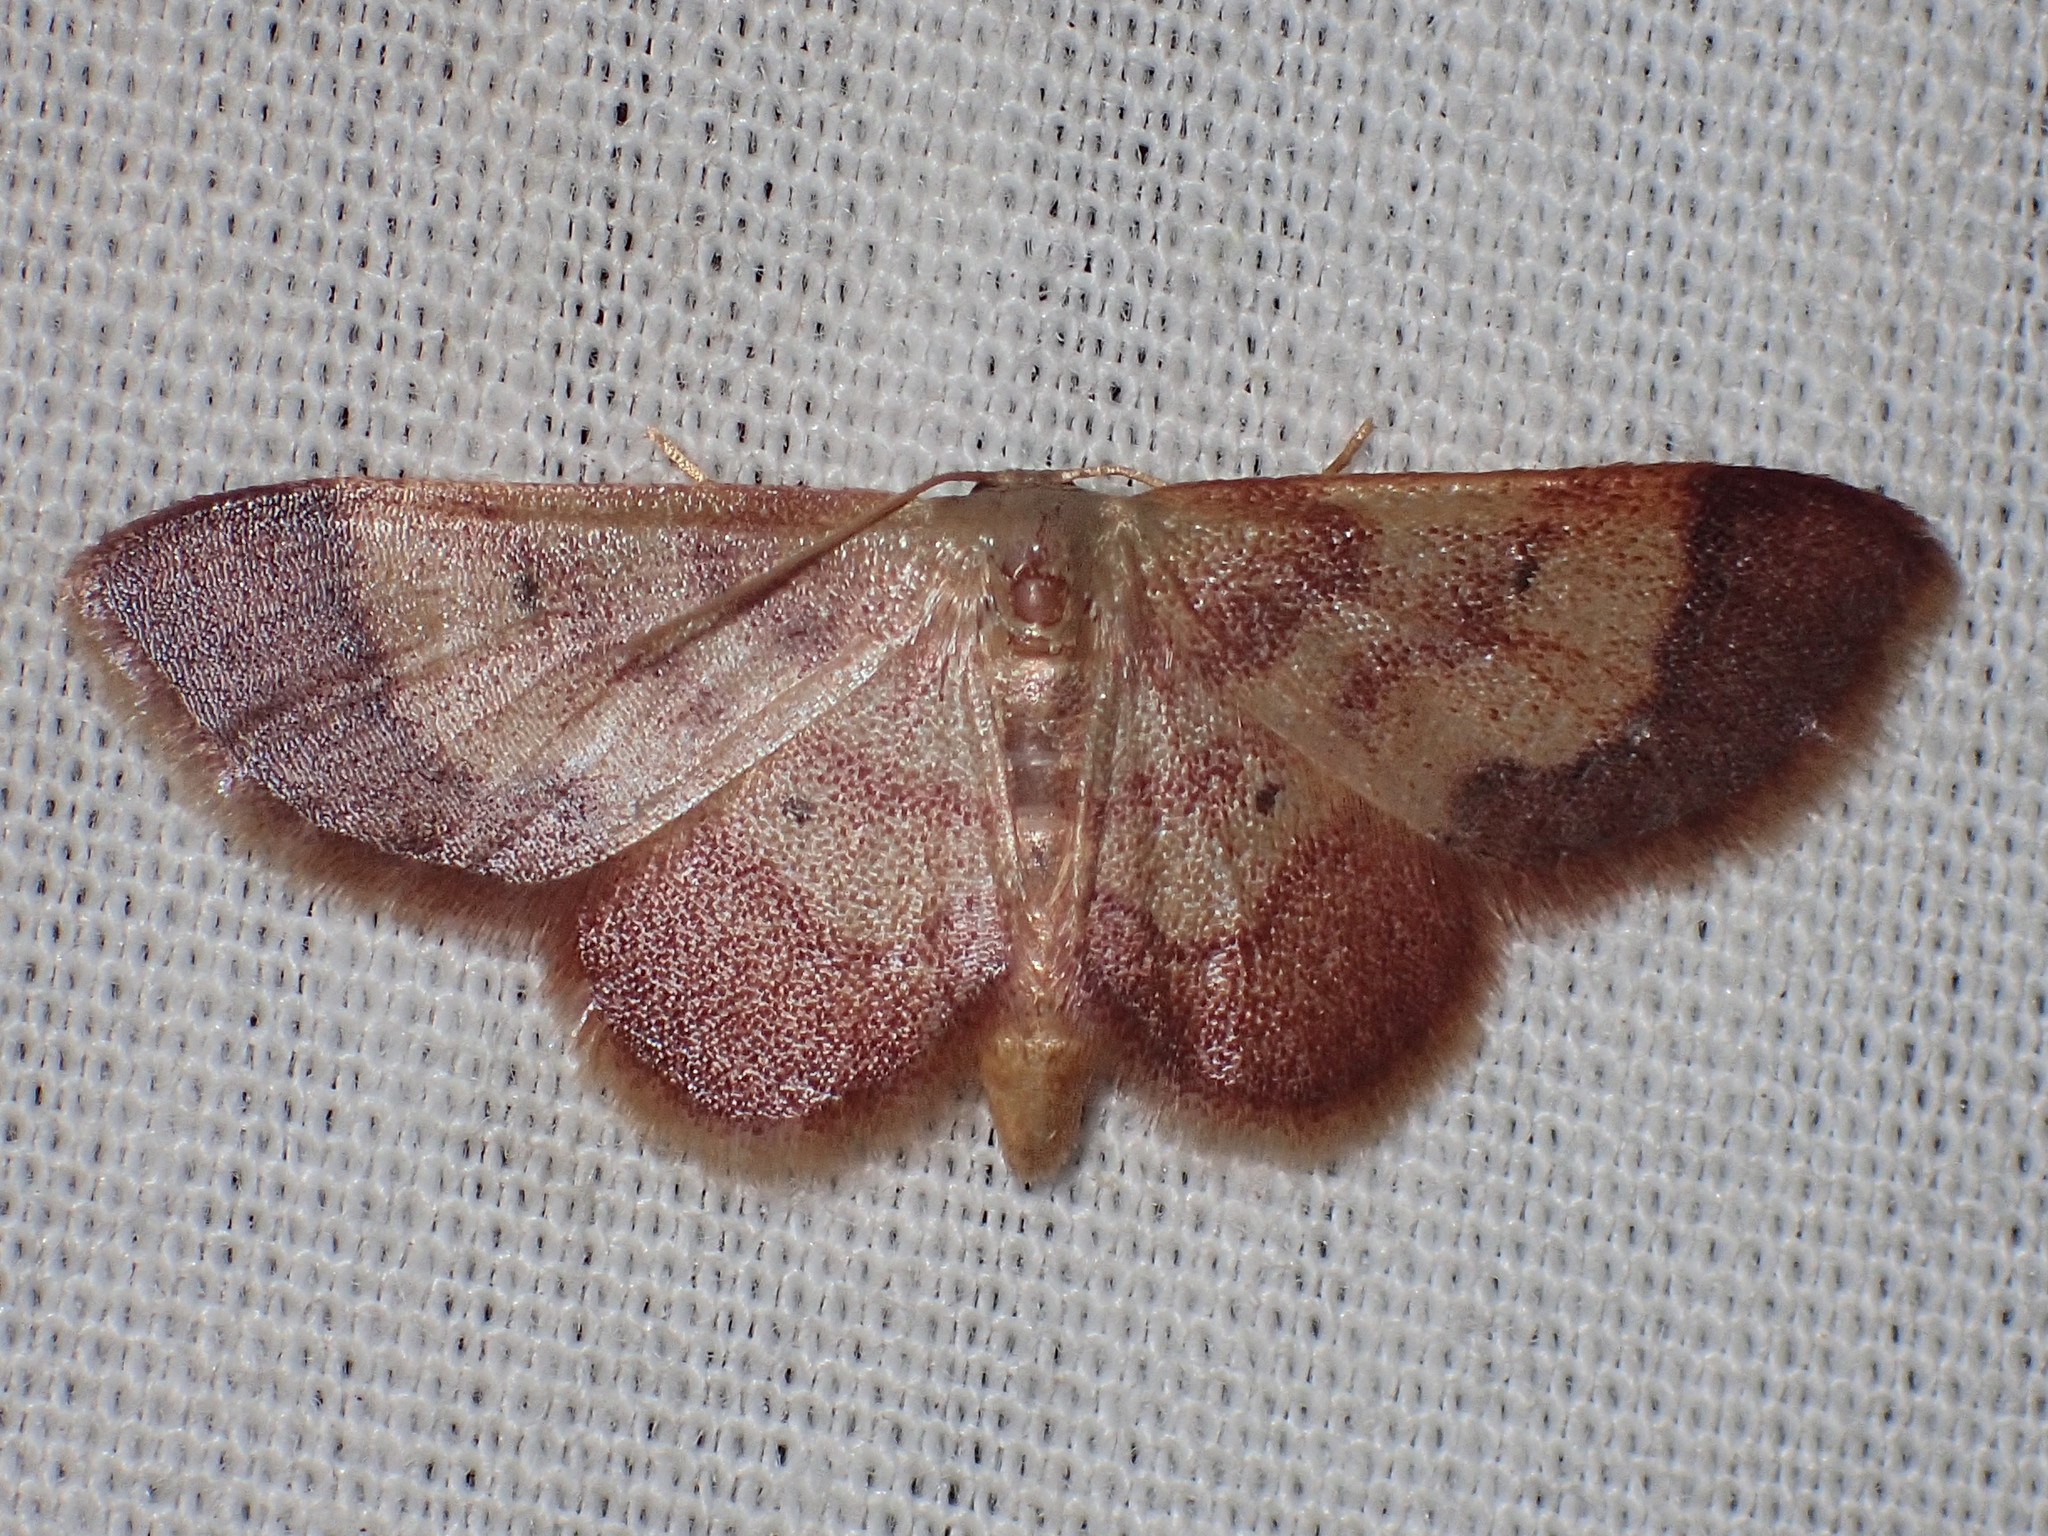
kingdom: Animalia
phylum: Arthropoda
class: Insecta
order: Lepidoptera
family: Geometridae
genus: Idaea
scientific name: Idaea demissaria
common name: Red-bordered wave
